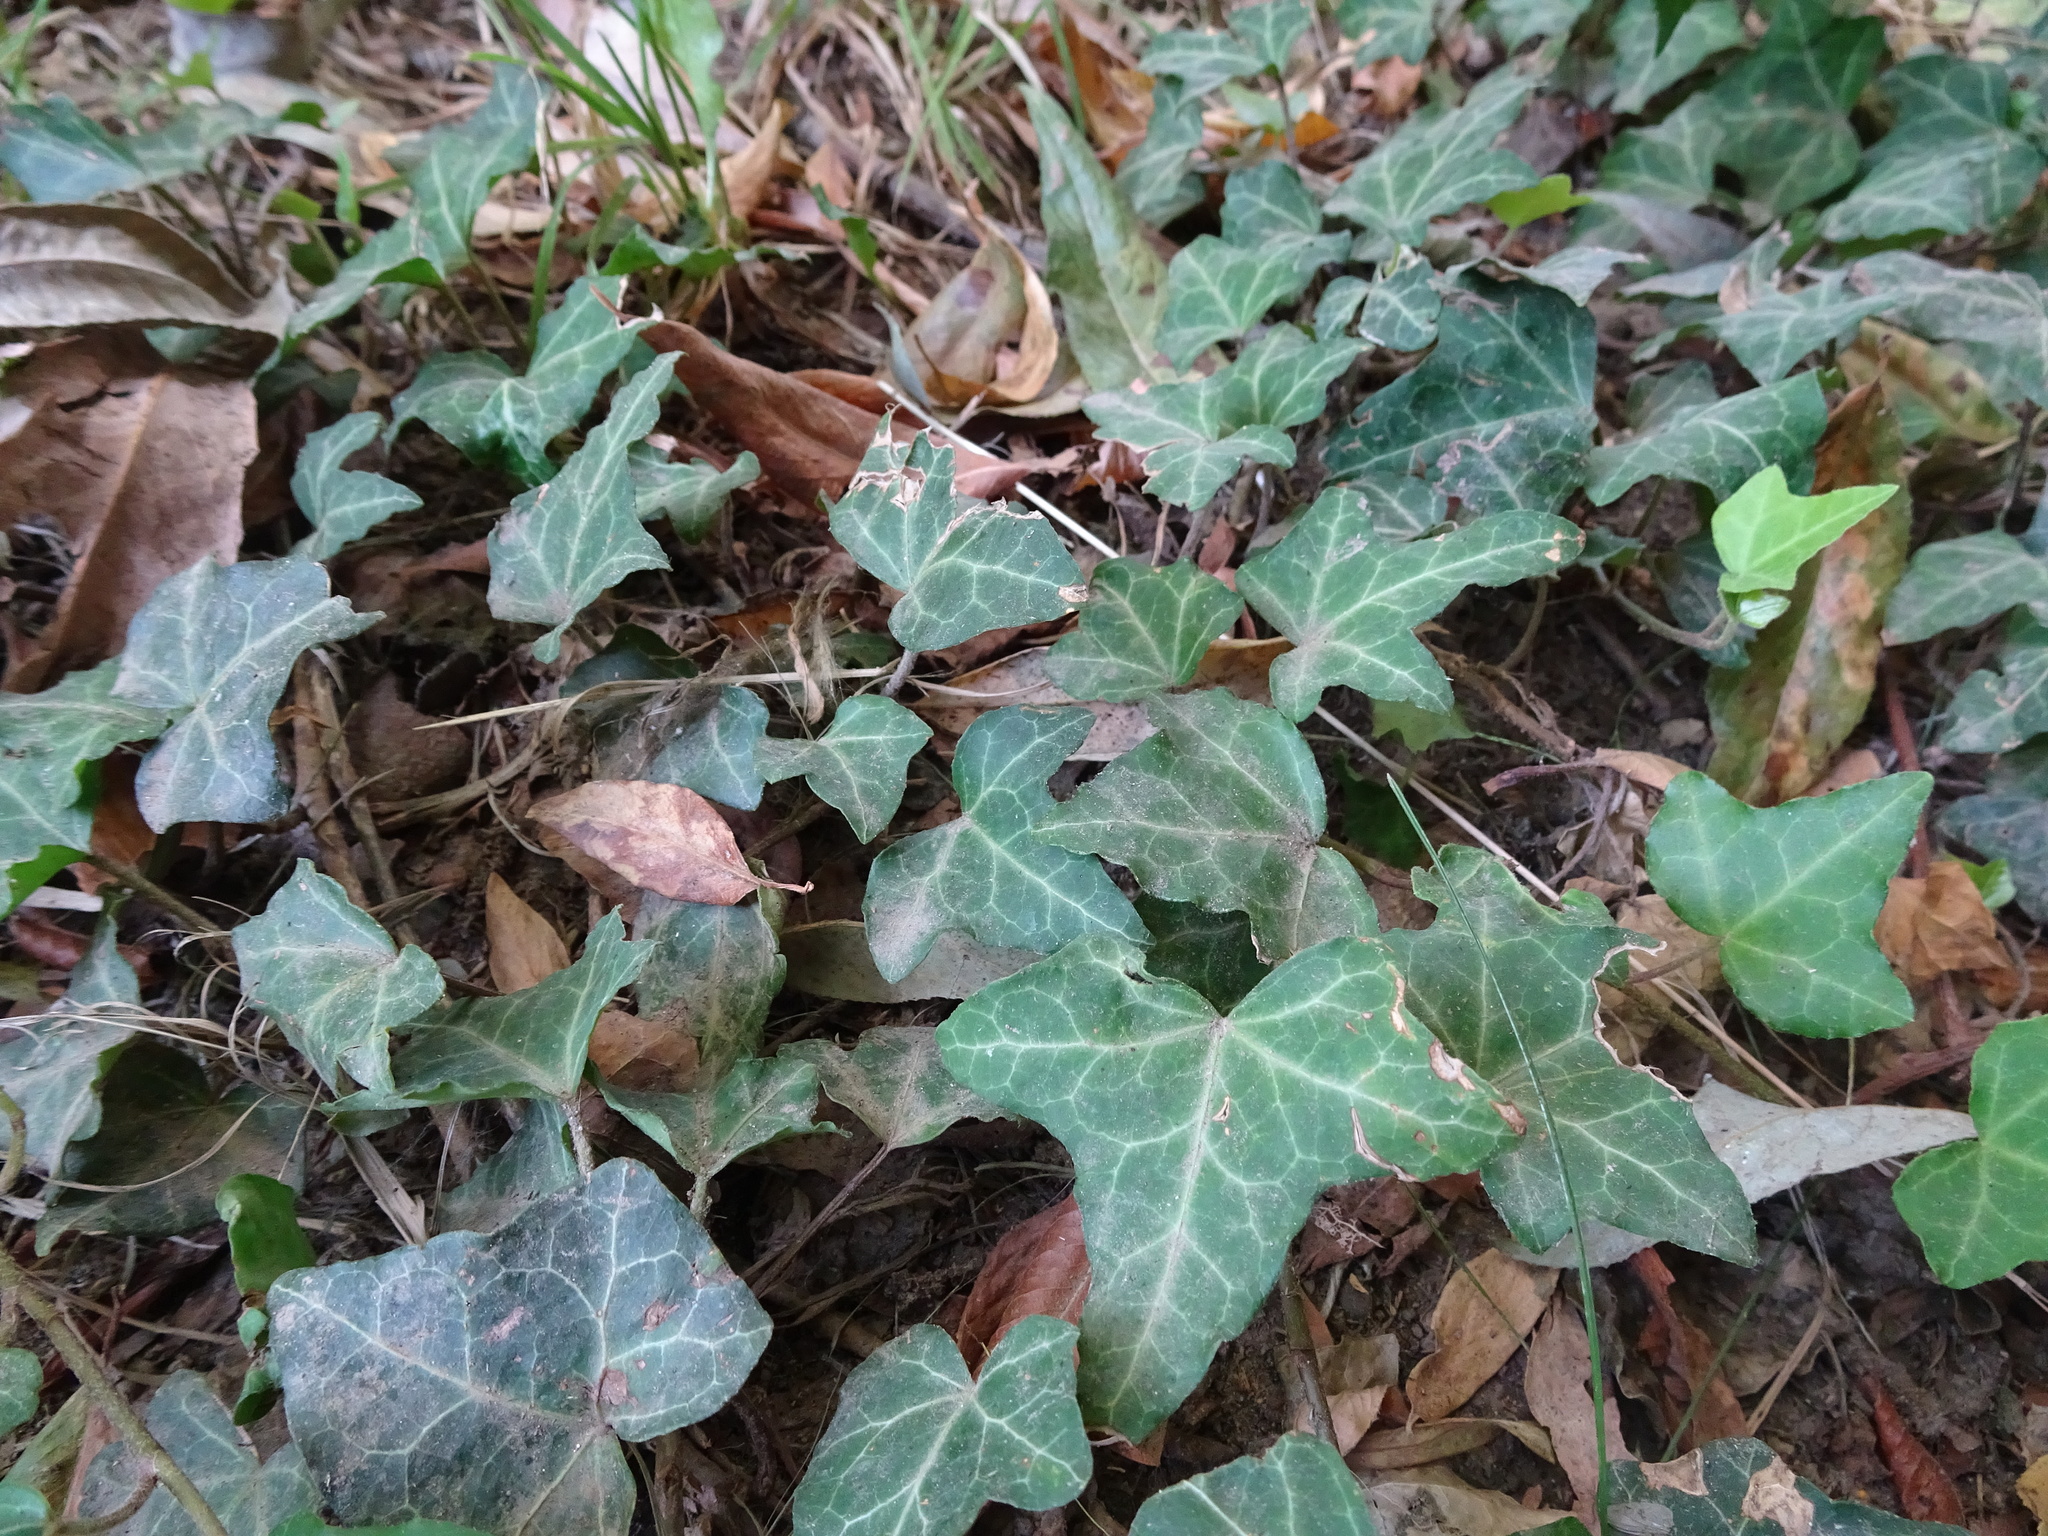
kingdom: Plantae
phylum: Tracheophyta
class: Magnoliopsida
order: Apiales
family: Araliaceae
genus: Hedera
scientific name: Hedera helix
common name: Ivy
